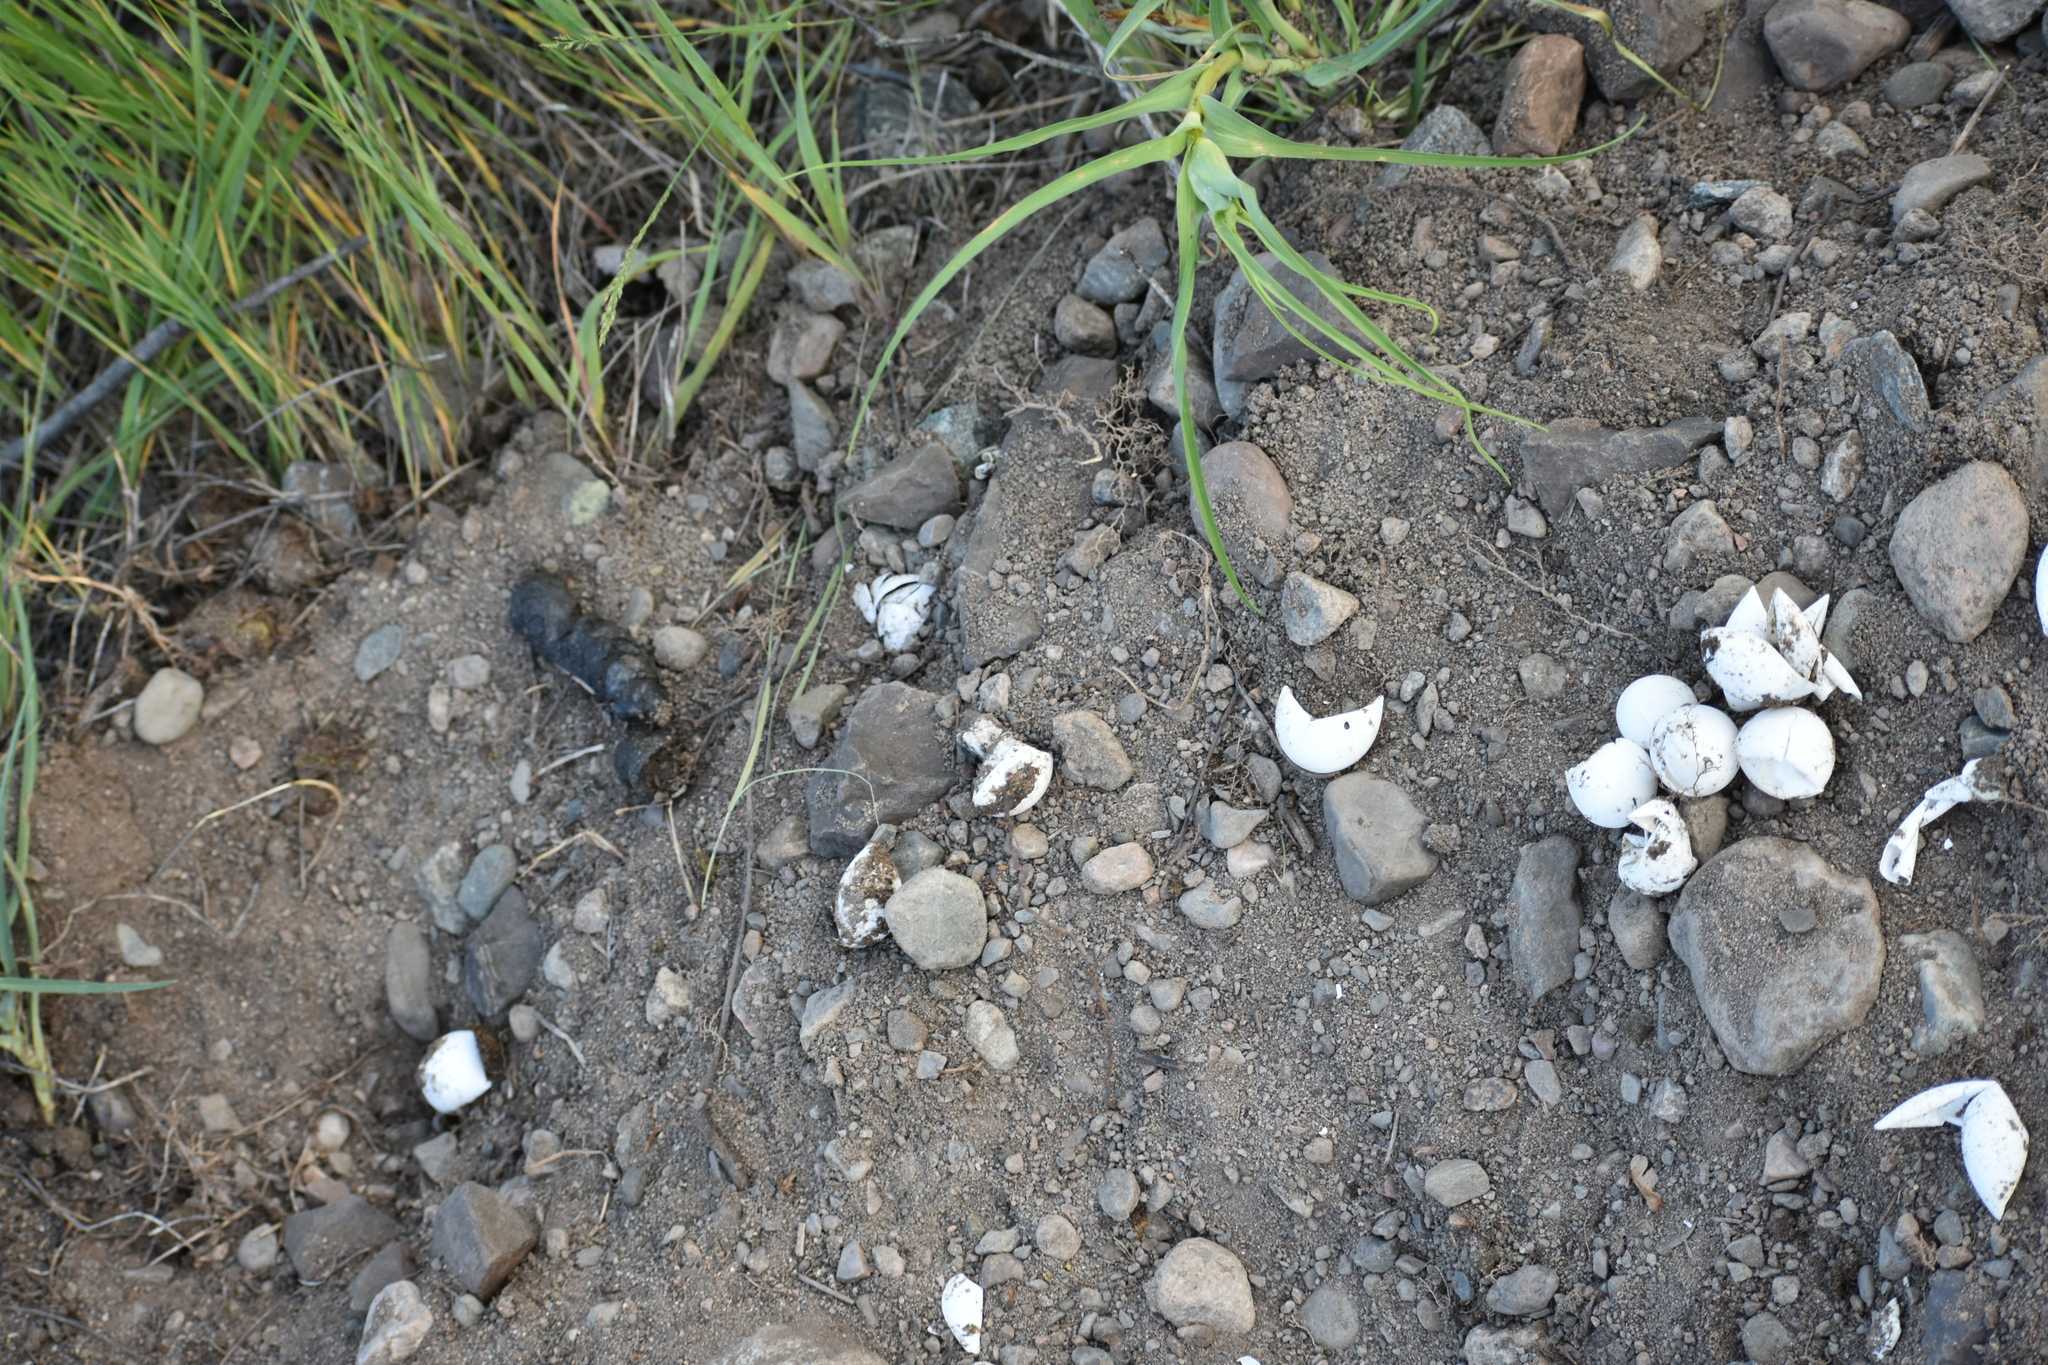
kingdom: Animalia
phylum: Chordata
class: Testudines
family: Chelydridae
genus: Chelydra
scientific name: Chelydra serpentina
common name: Common snapping turtle
